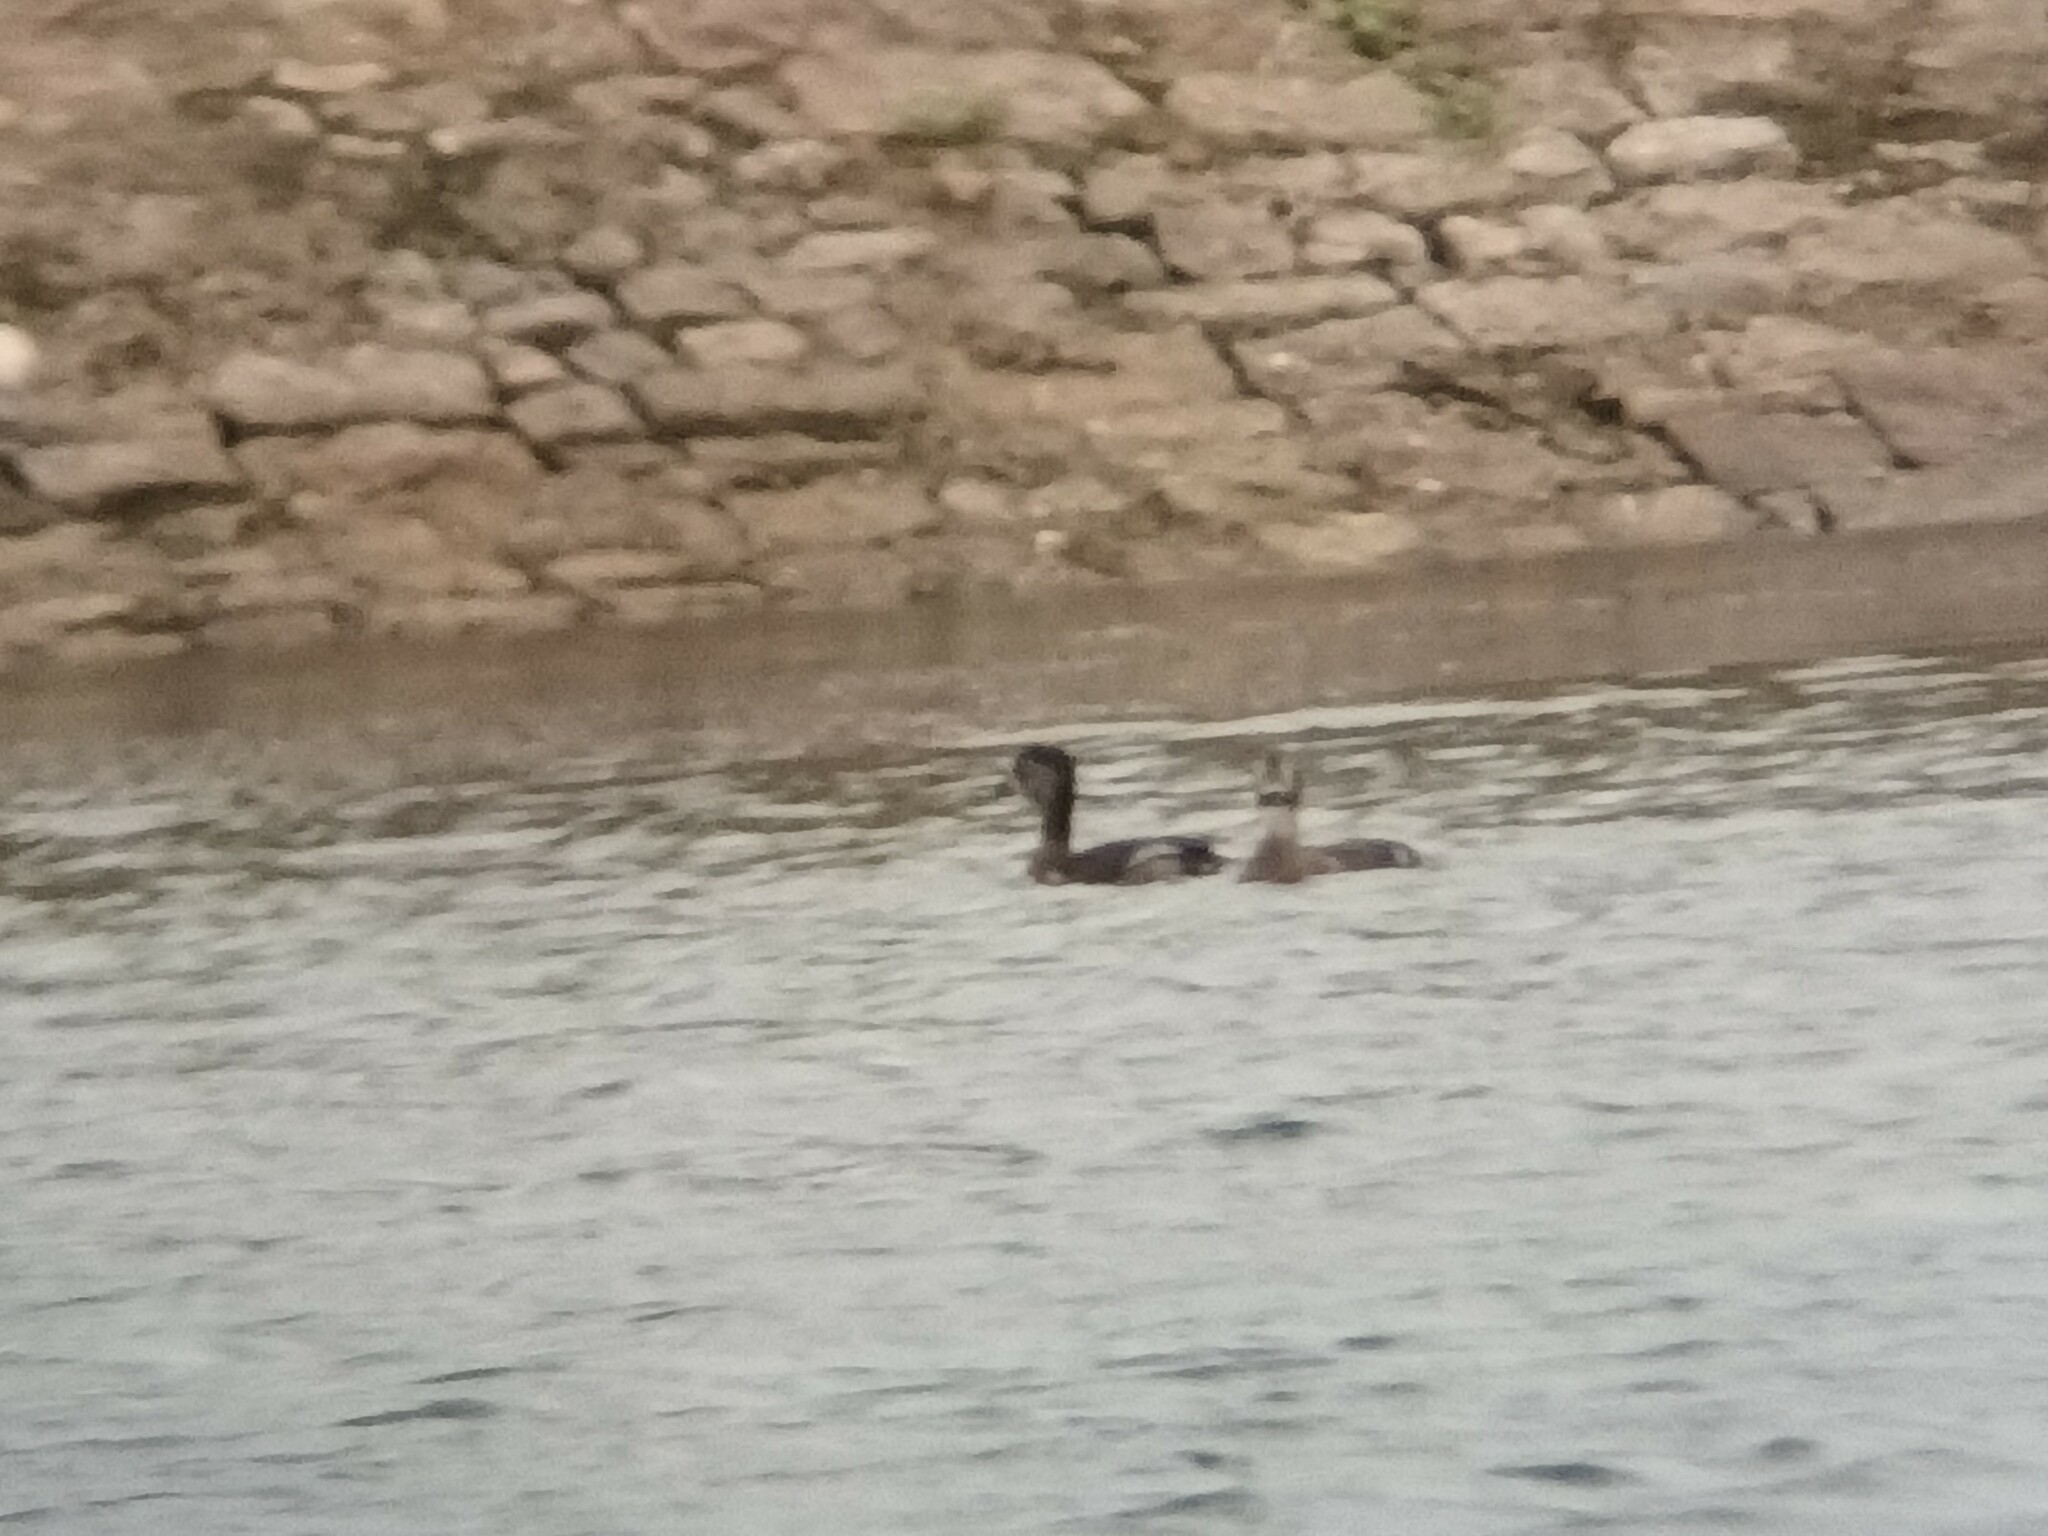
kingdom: Animalia
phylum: Chordata
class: Aves
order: Anseriformes
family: Anatidae
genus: Aythya
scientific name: Aythya collaris
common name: Ring-necked duck
